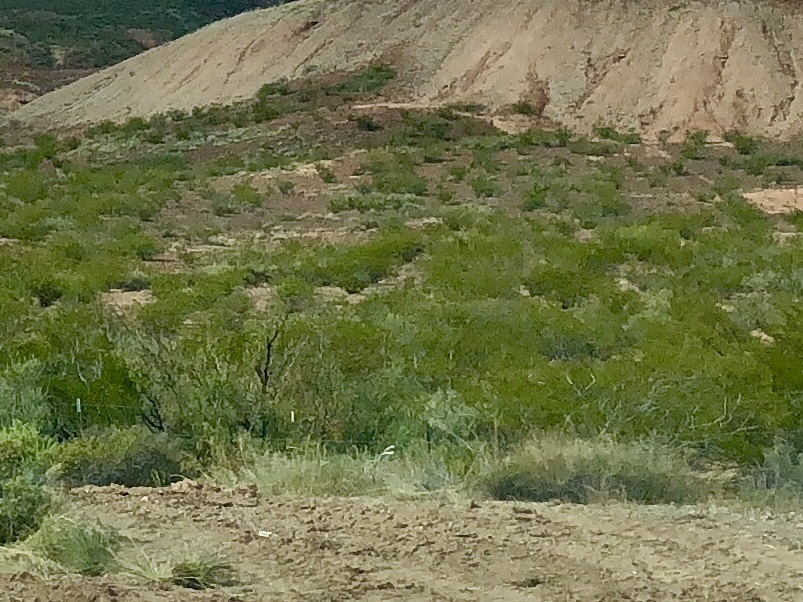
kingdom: Plantae
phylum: Tracheophyta
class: Magnoliopsida
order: Zygophyllales
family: Zygophyllaceae
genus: Larrea
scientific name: Larrea tridentata
